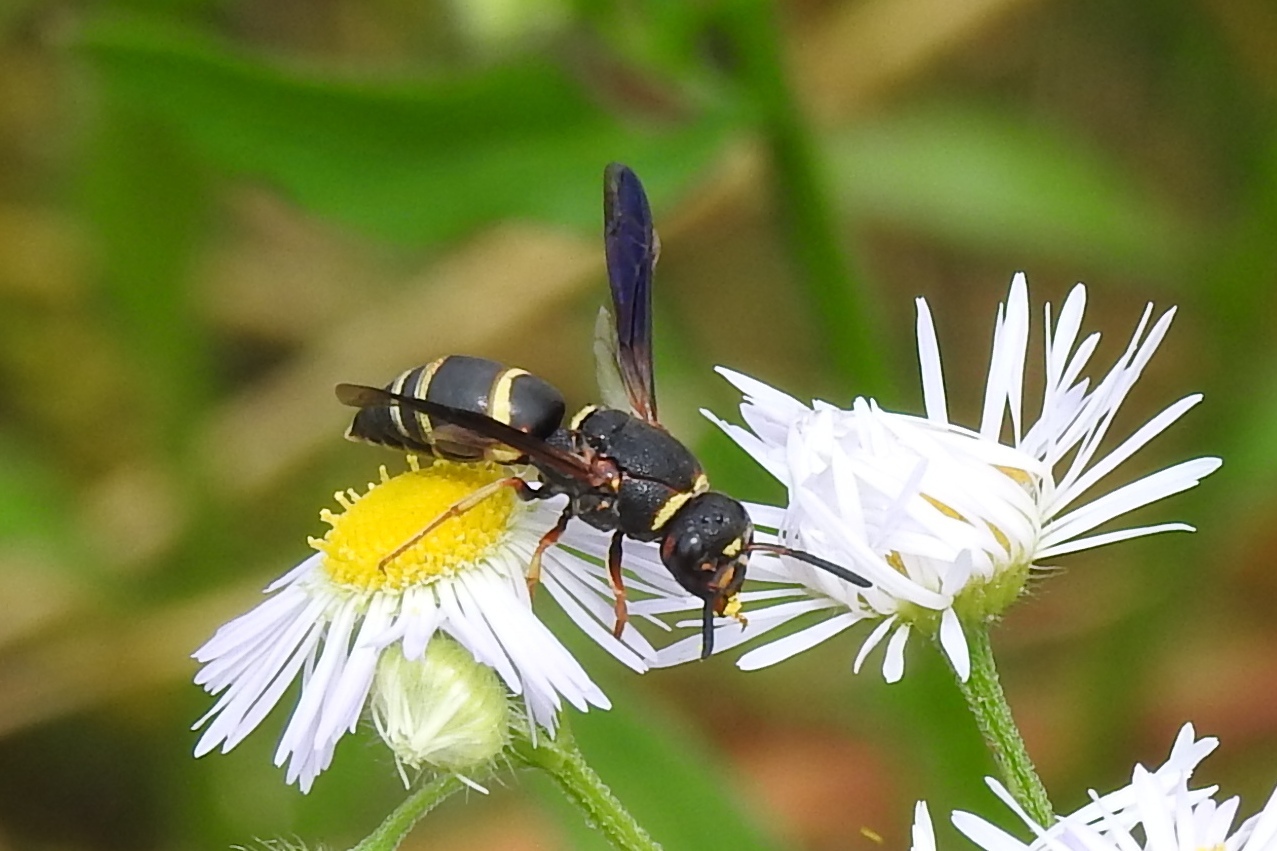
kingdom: Animalia
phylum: Arthropoda
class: Insecta
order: Hymenoptera
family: Eumenidae
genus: Euodynerus
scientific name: Euodynerus hidalgo
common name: Wasp
